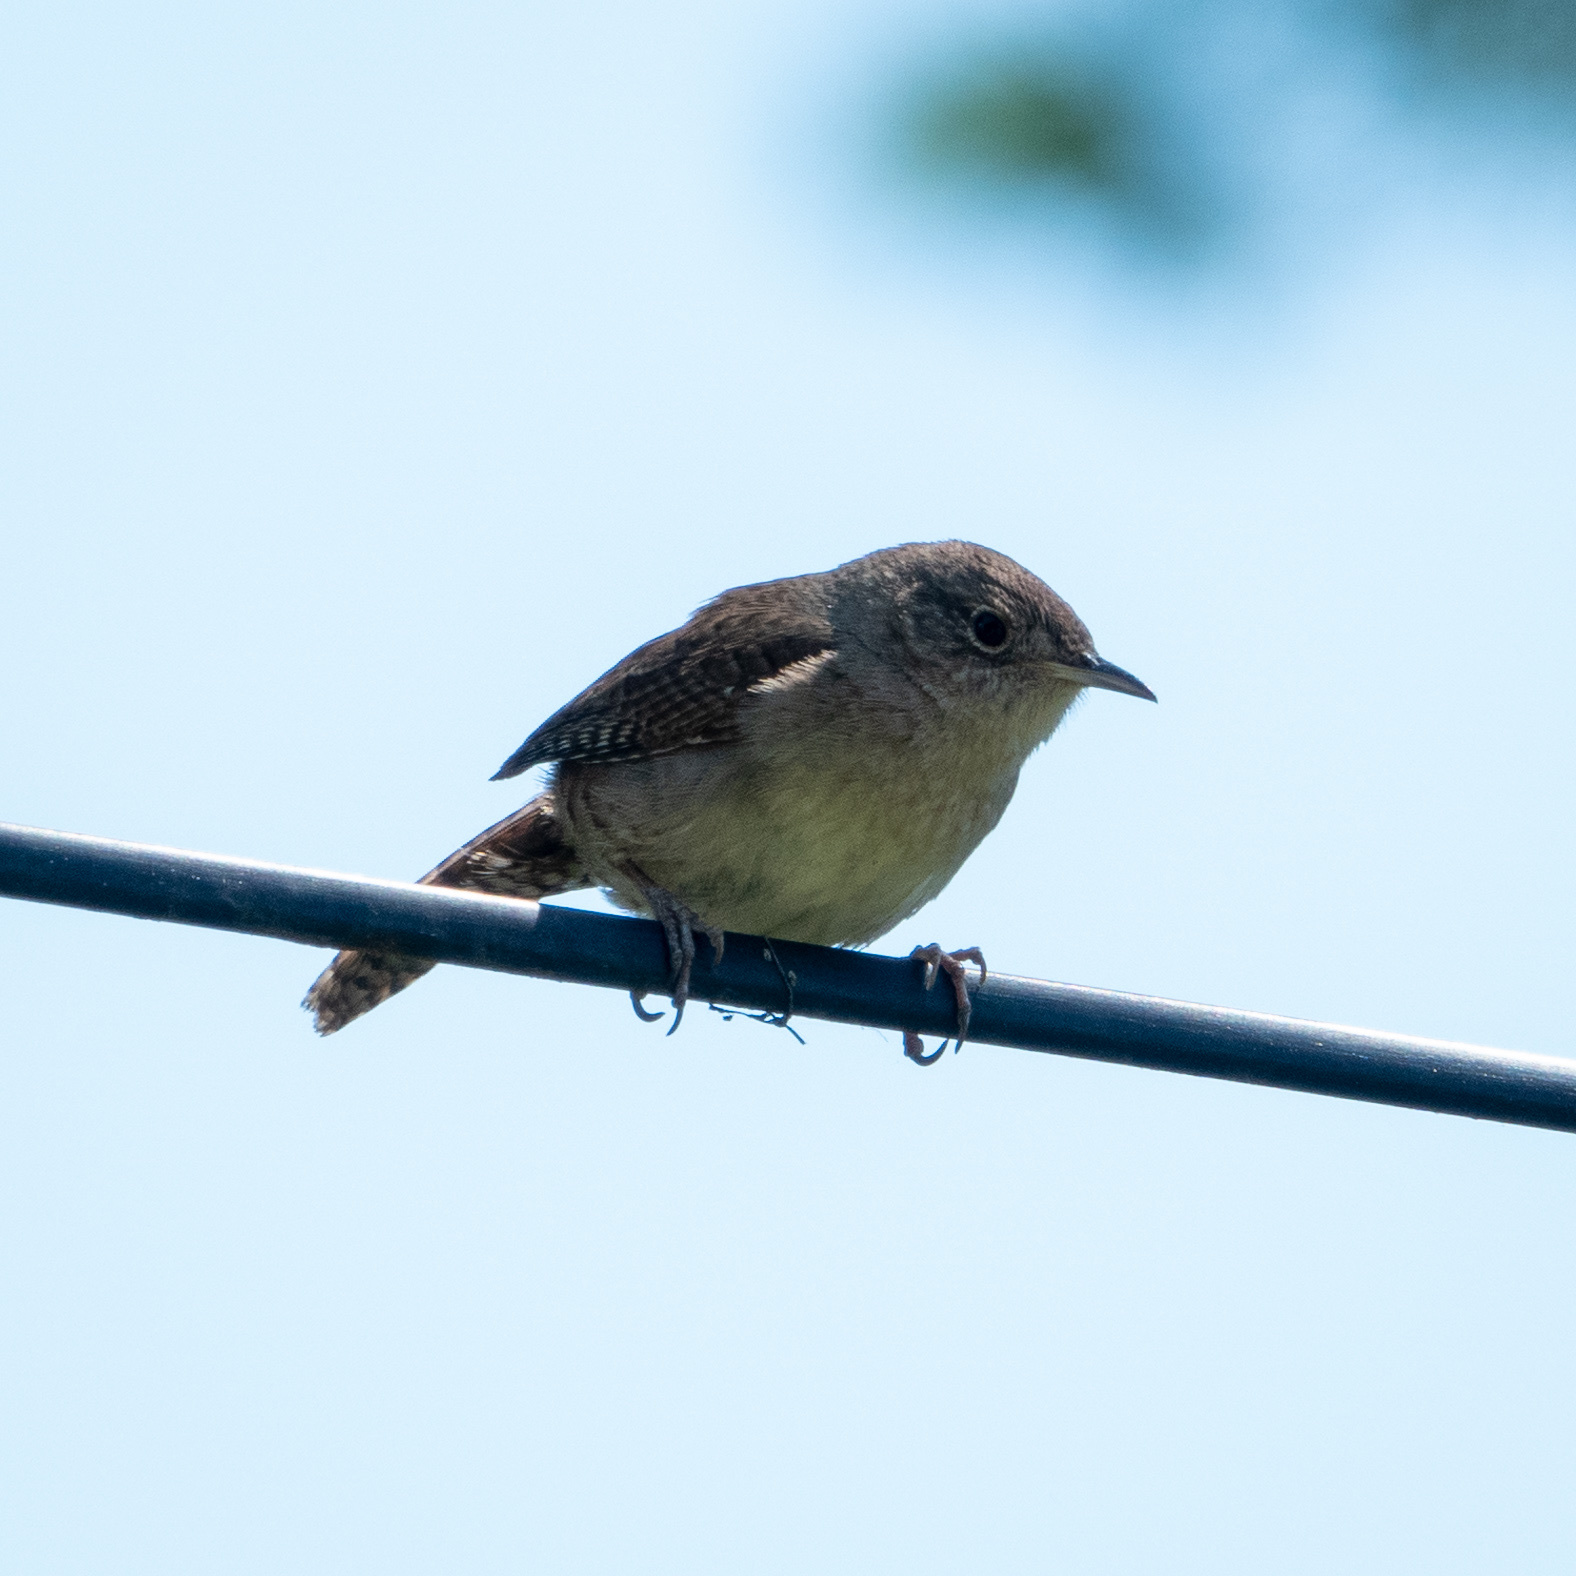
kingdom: Animalia
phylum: Chordata
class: Aves
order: Passeriformes
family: Troglodytidae
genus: Troglodytes
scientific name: Troglodytes aedon
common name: House wren
